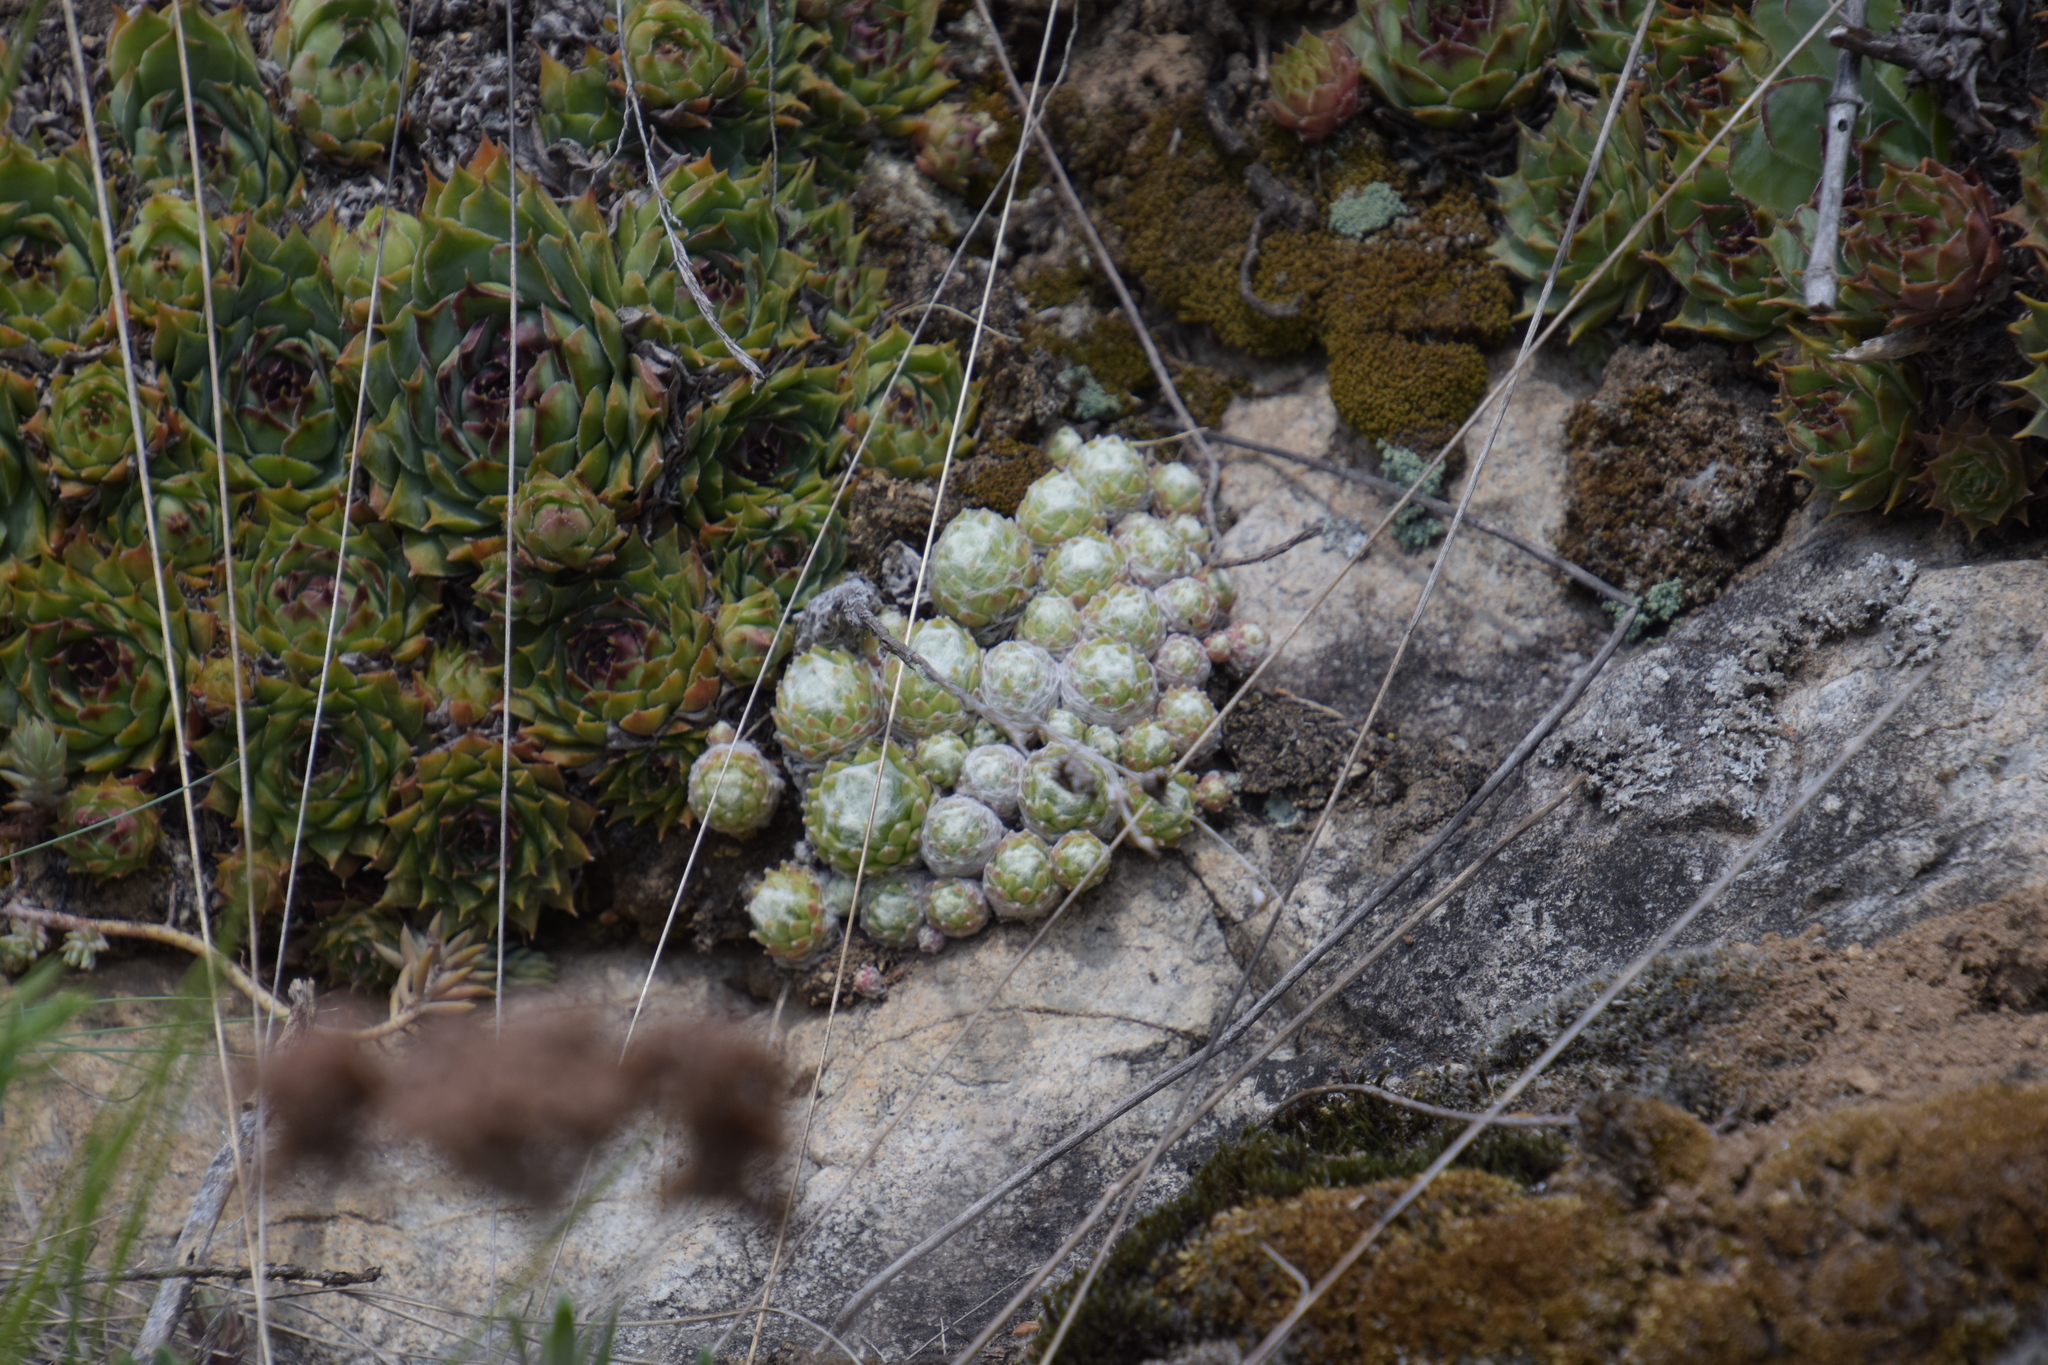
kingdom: Plantae
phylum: Tracheophyta
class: Magnoliopsida
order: Saxifragales
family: Crassulaceae
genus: Sempervivum
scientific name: Sempervivum arachnoideum
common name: Cobweb house-leek
